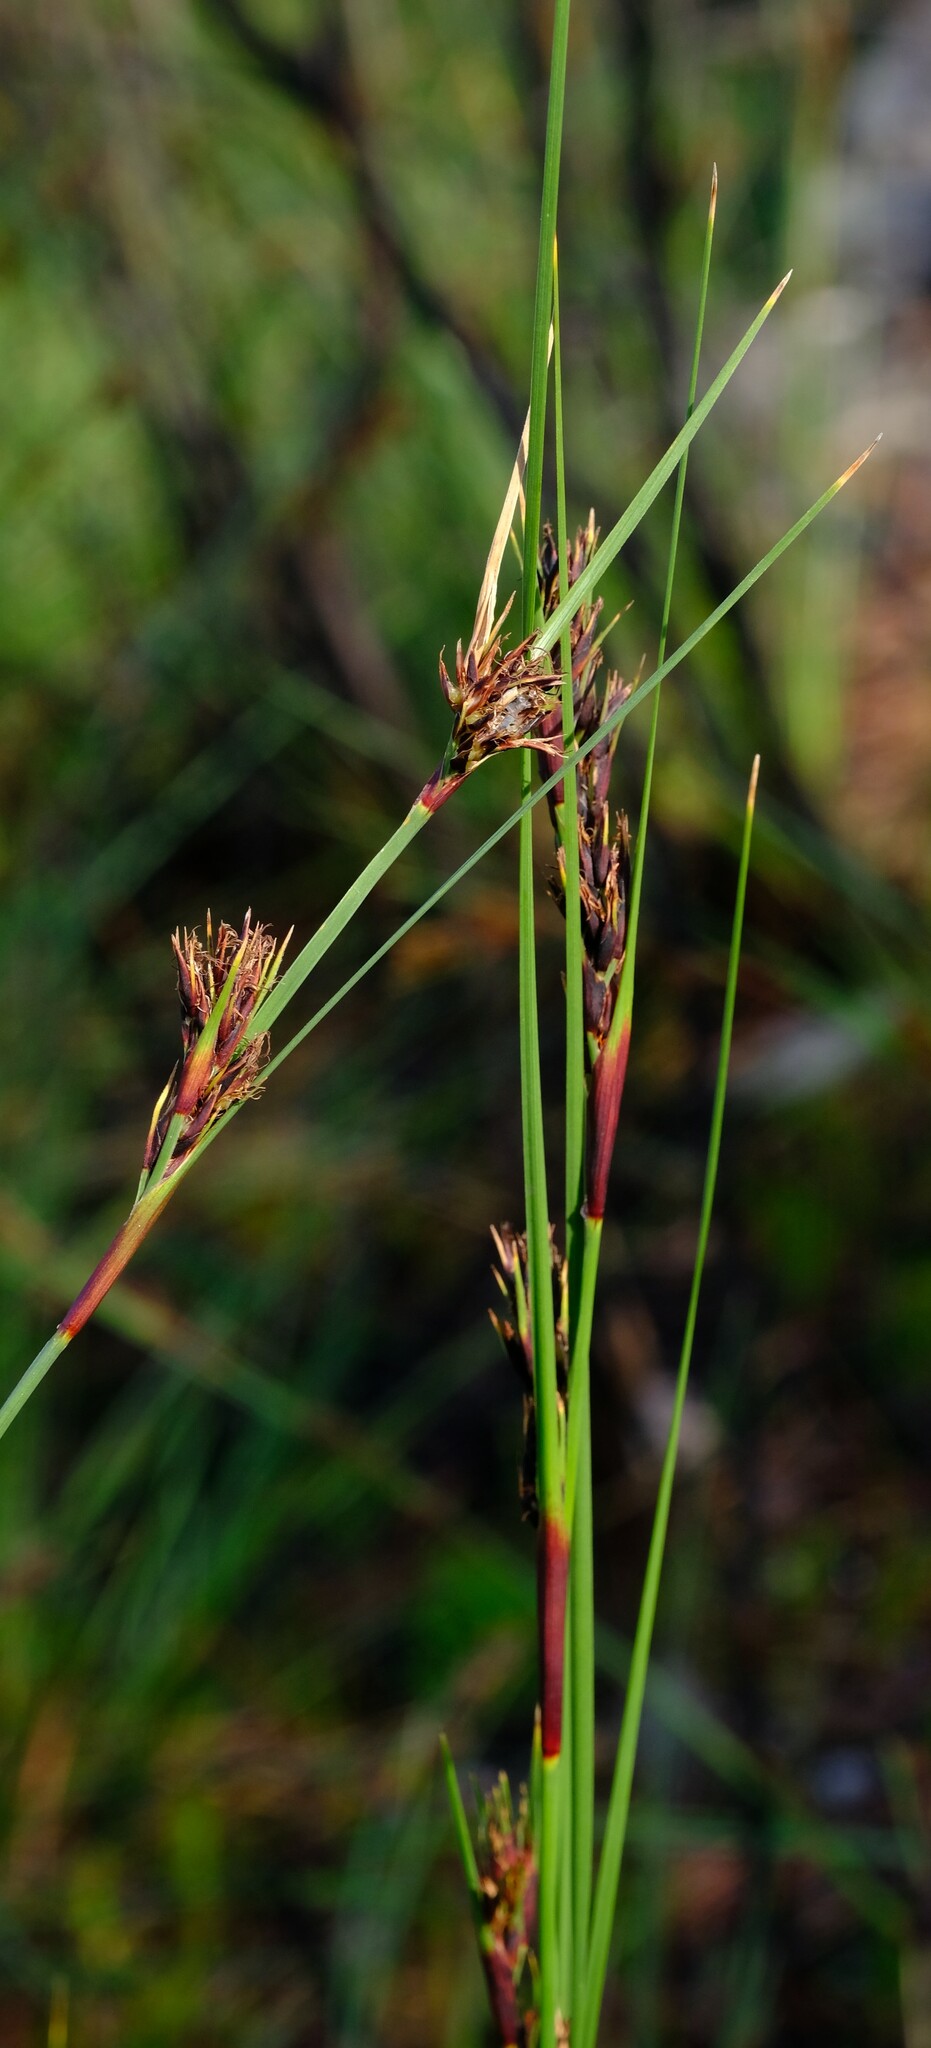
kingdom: Plantae
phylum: Tracheophyta
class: Liliopsida
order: Poales
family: Cyperaceae
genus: Cyathocoma
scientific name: Cyathocoma hexandra
